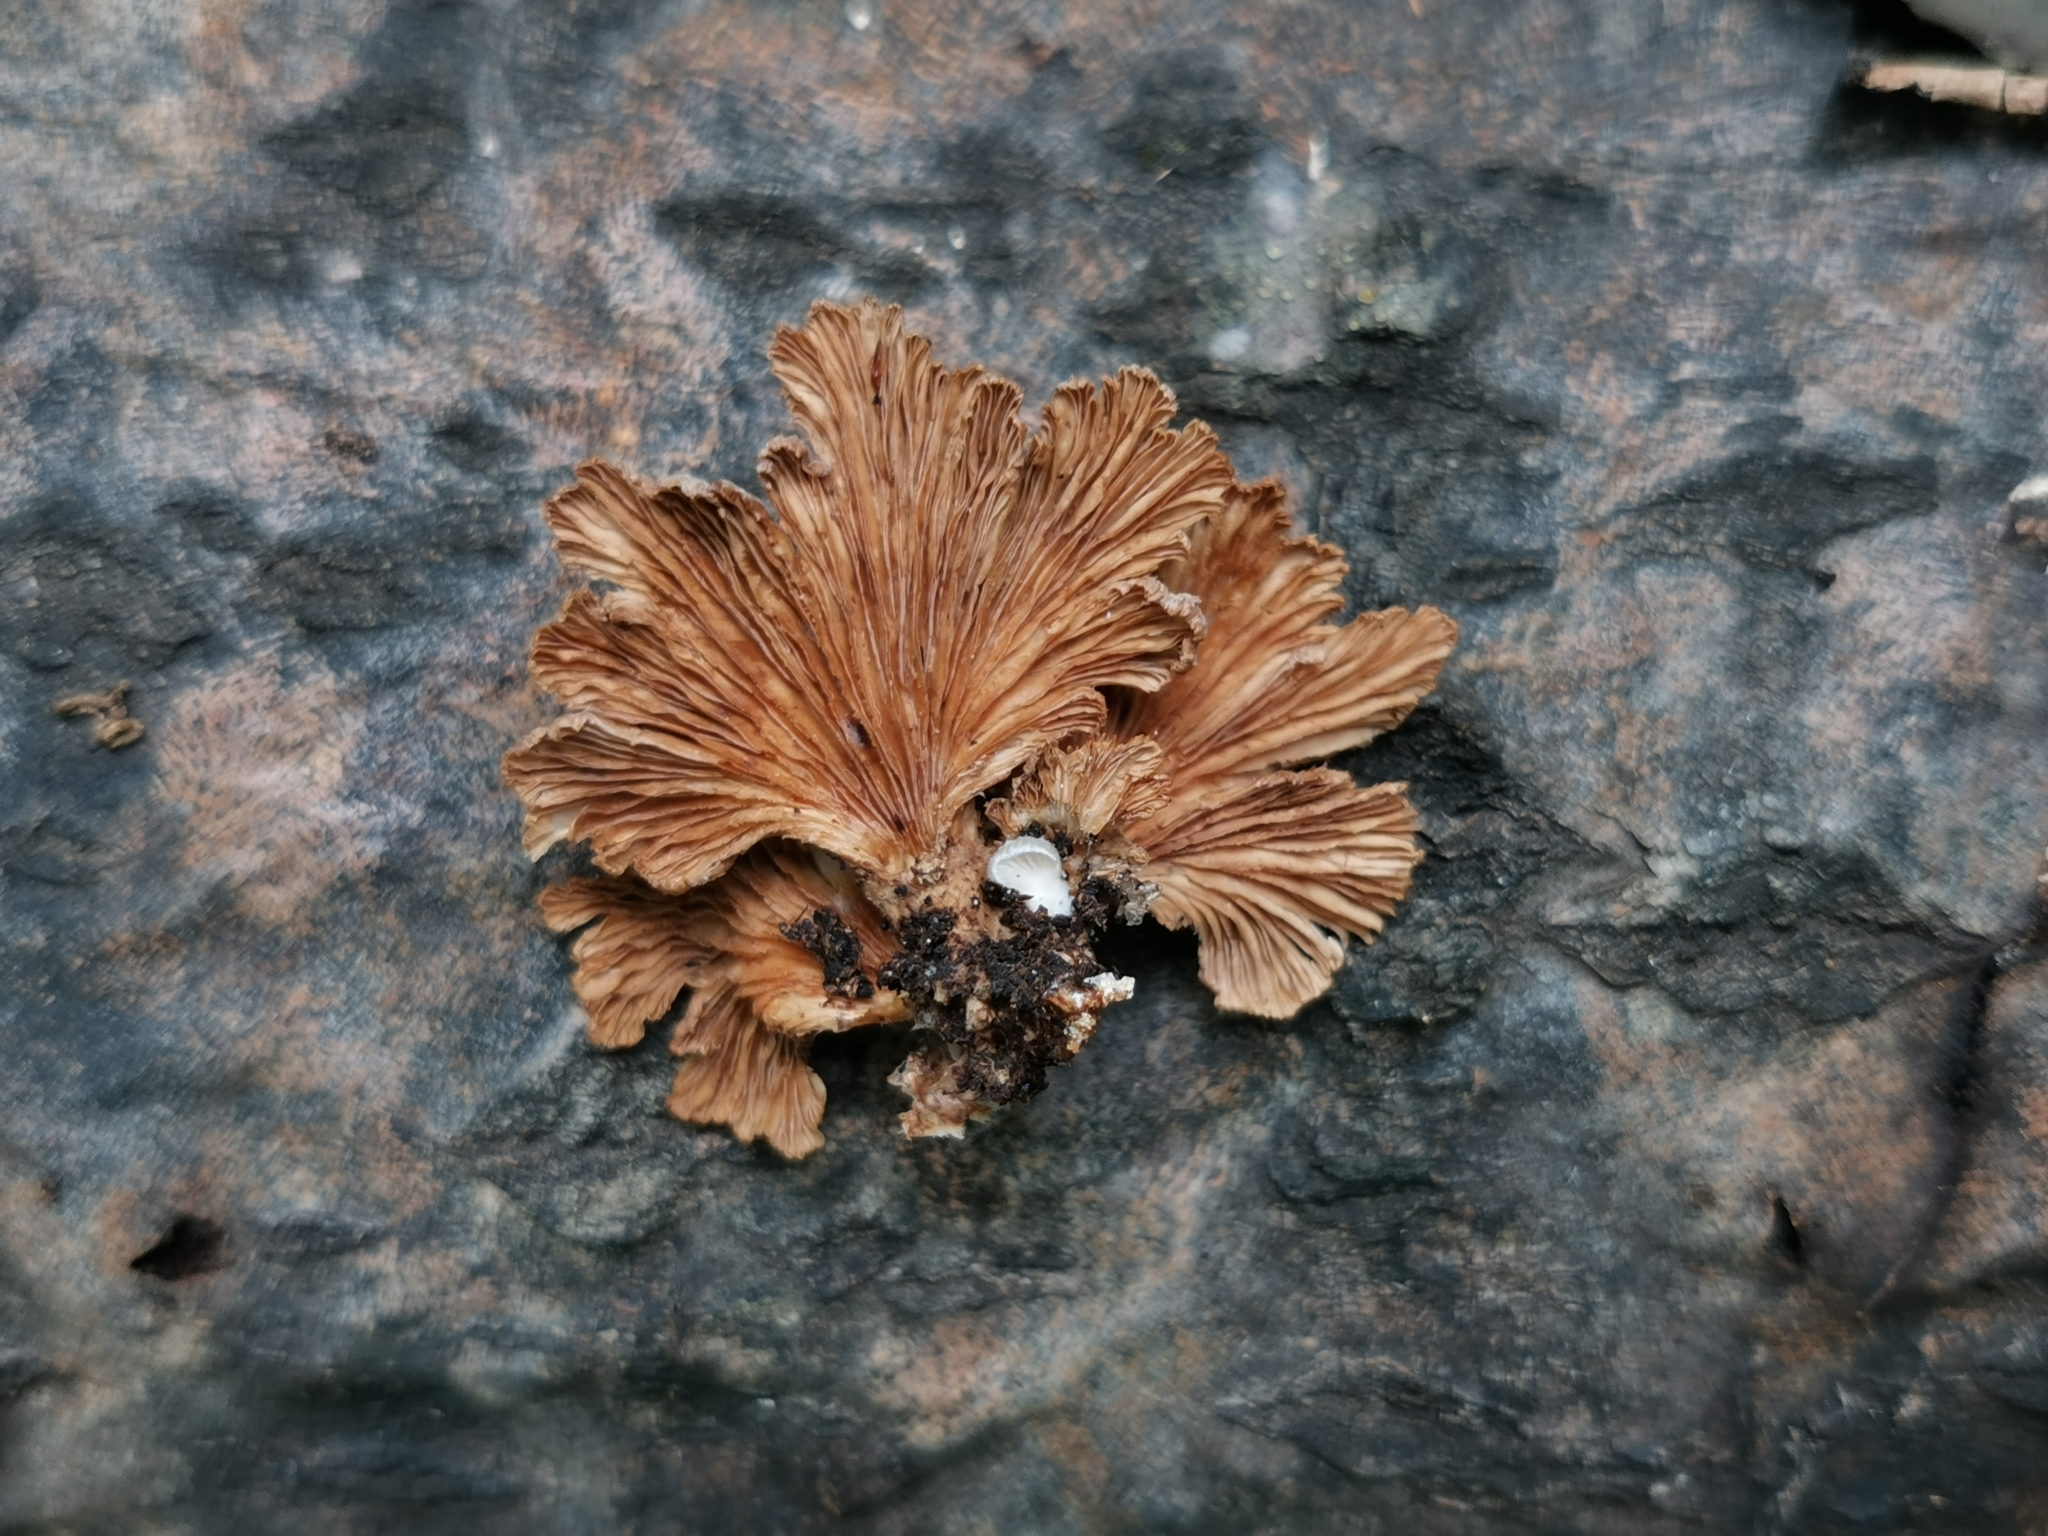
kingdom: Fungi
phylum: Basidiomycota
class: Agaricomycetes
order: Agaricales
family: Schizophyllaceae
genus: Schizophyllum
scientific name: Schizophyllum commune
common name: Common porecrust
